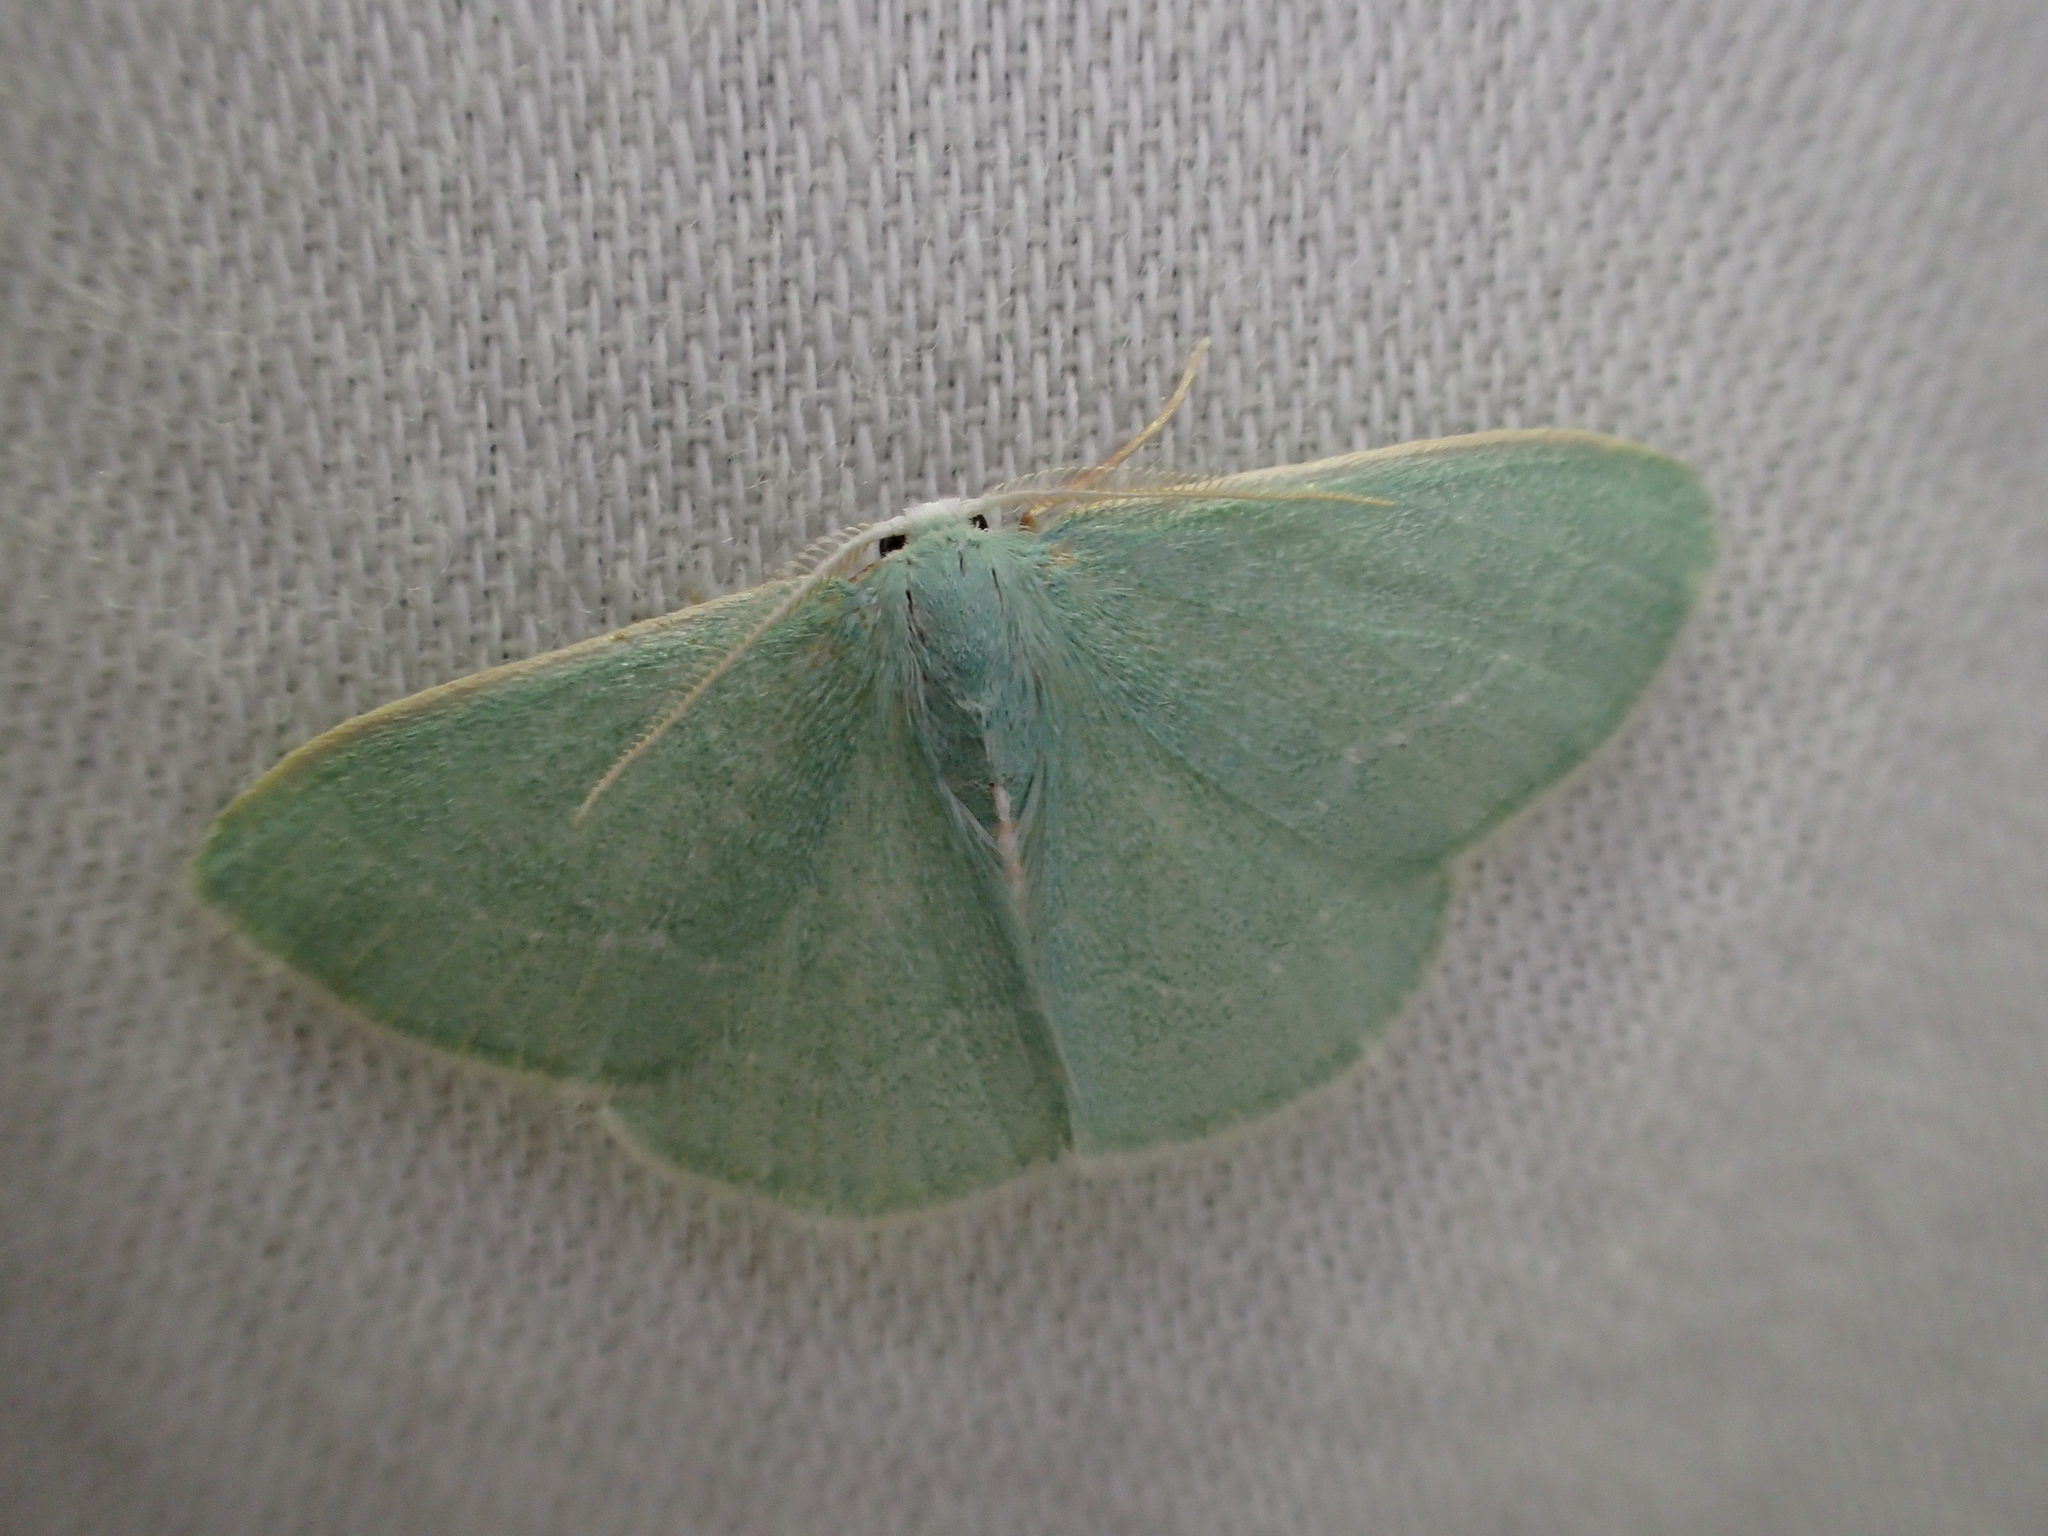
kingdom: Animalia
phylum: Arthropoda
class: Insecta
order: Lepidoptera
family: Geometridae
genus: Xenochlorodes
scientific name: Xenochlorodes olympiaria
